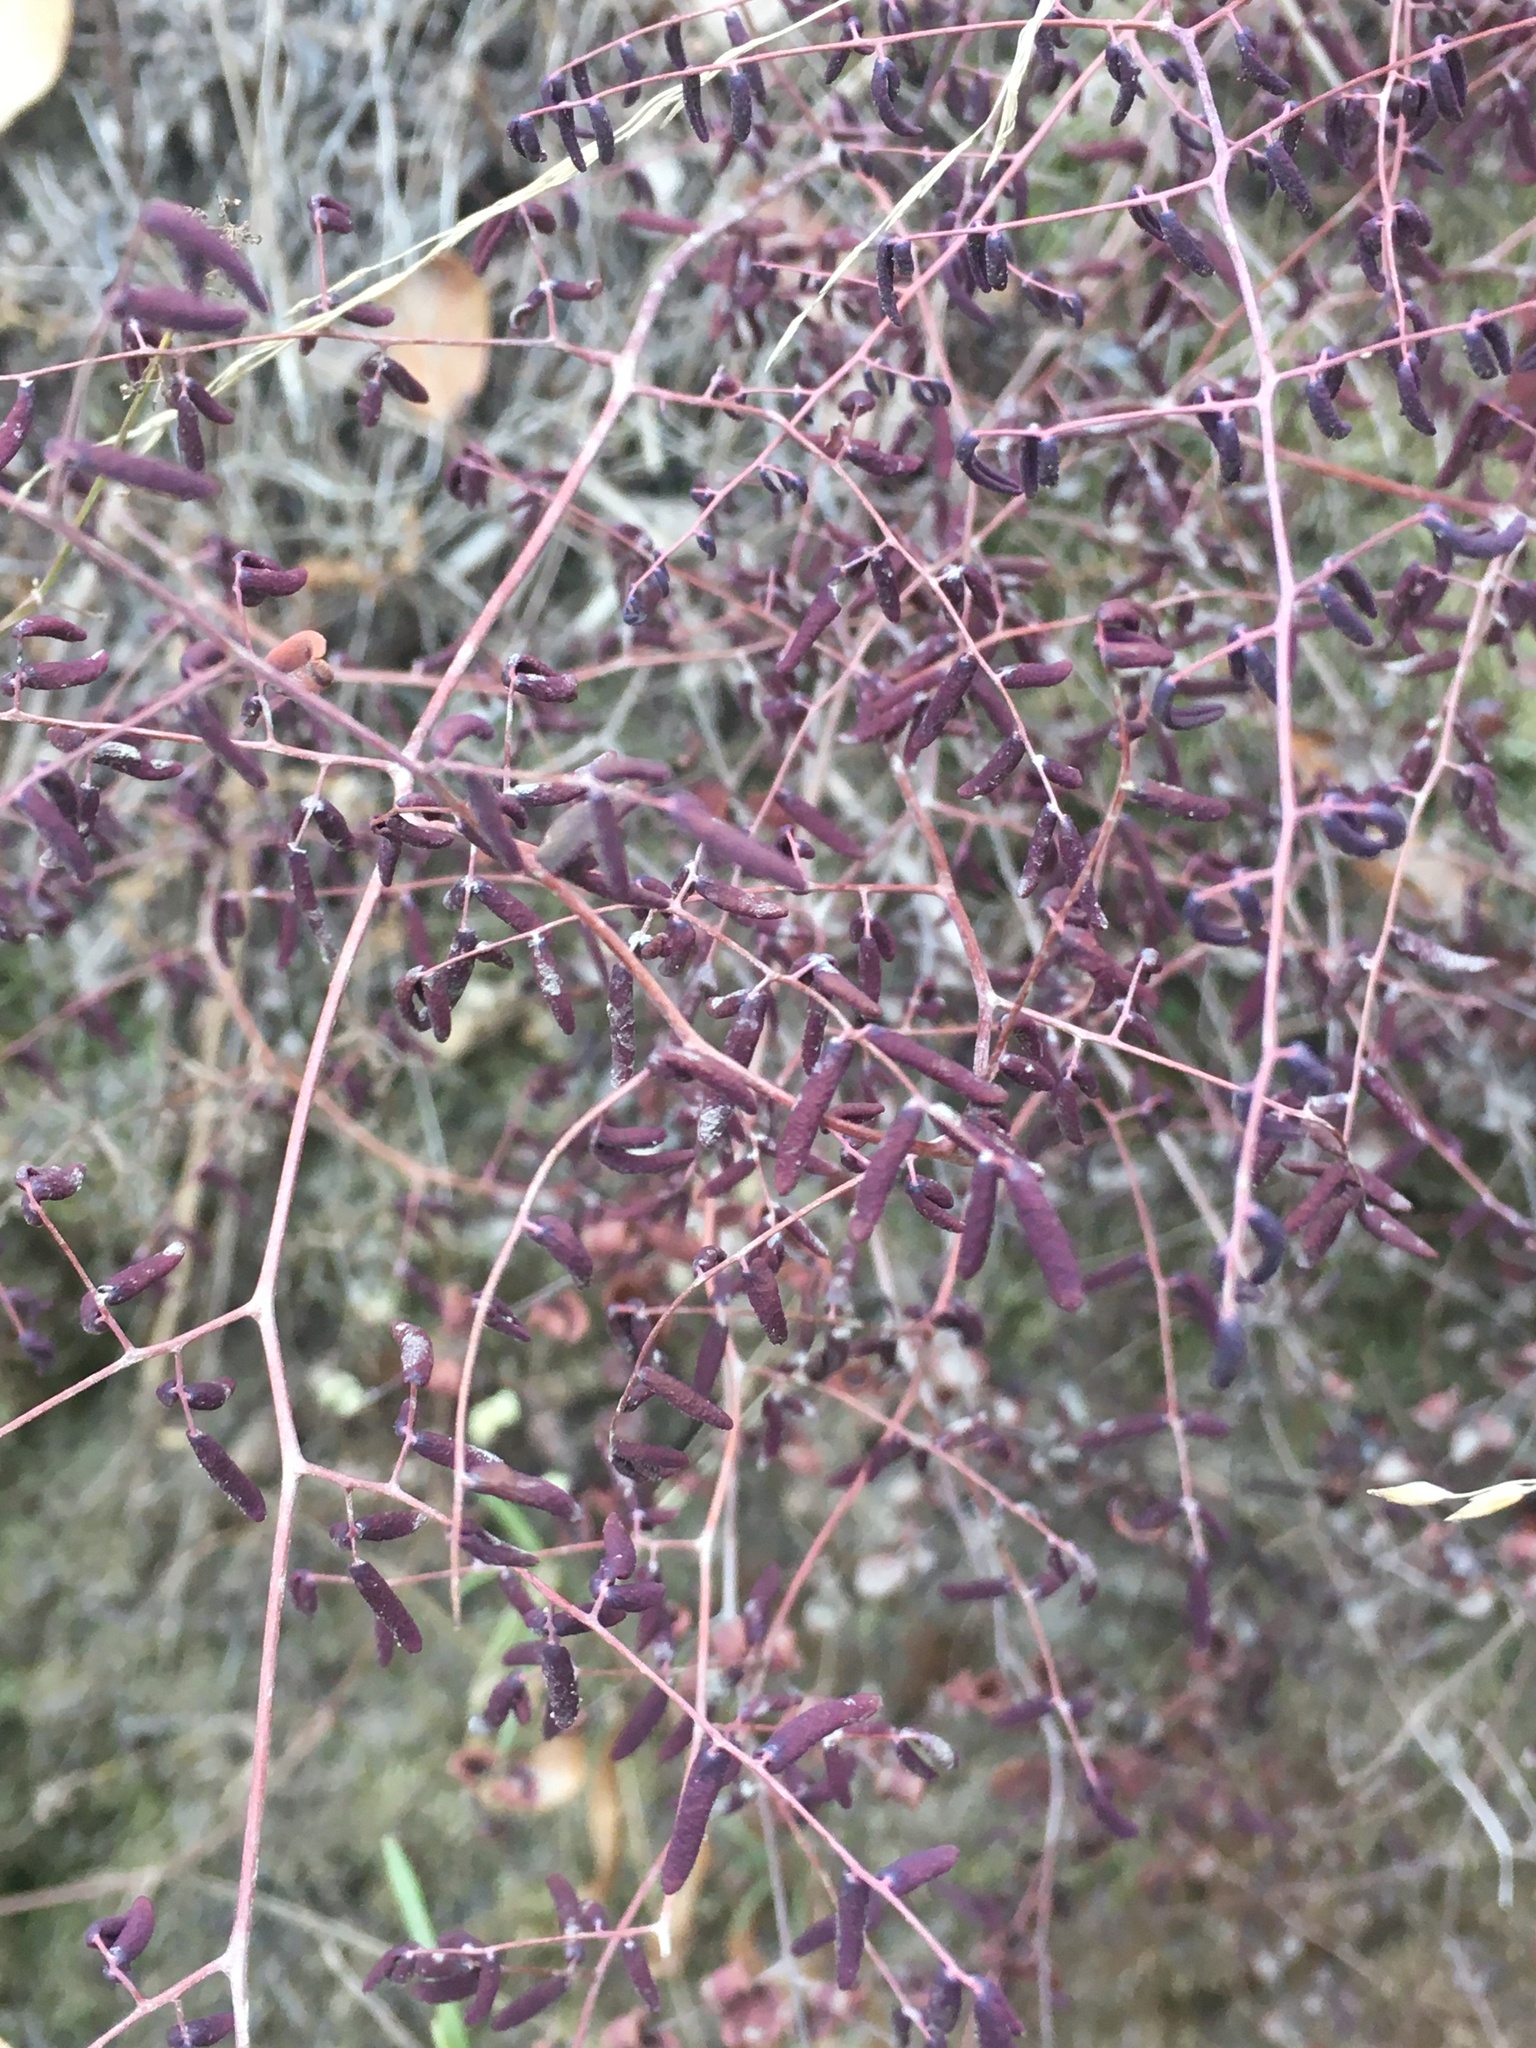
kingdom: Plantae
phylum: Tracheophyta
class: Polypodiopsida
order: Polypodiales
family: Pteridaceae
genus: Pellaea
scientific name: Pellaea andromedifolia
